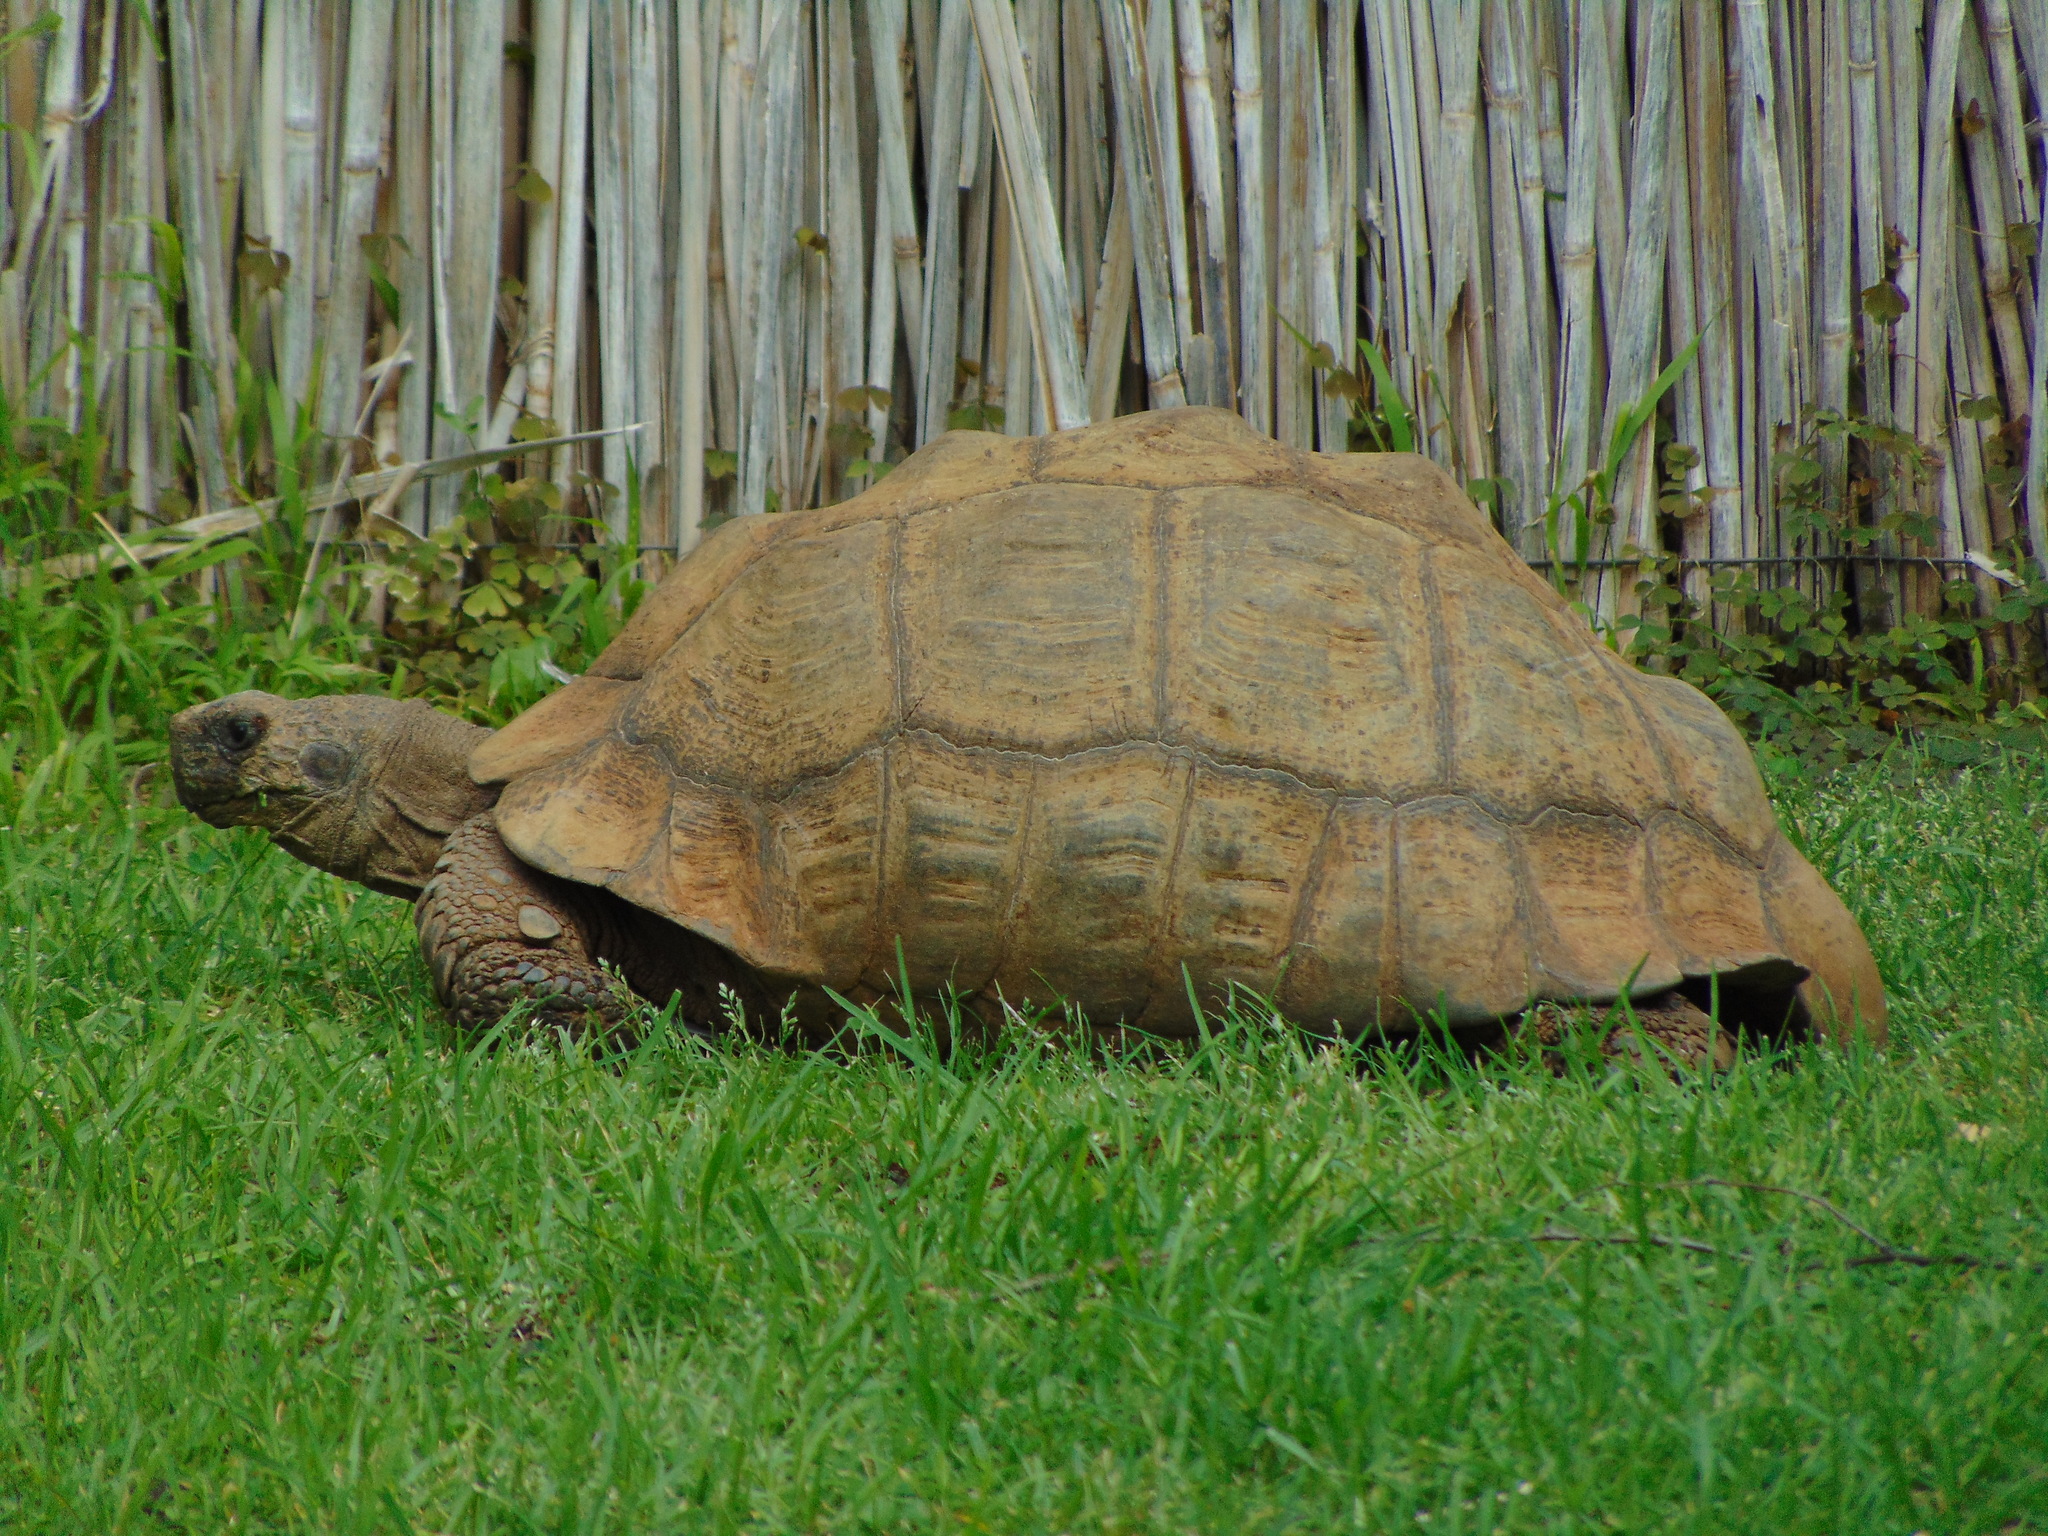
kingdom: Animalia
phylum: Chordata
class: Testudines
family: Testudinidae
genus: Stigmochelys
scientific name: Stigmochelys pardalis
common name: Leopard tortoise
